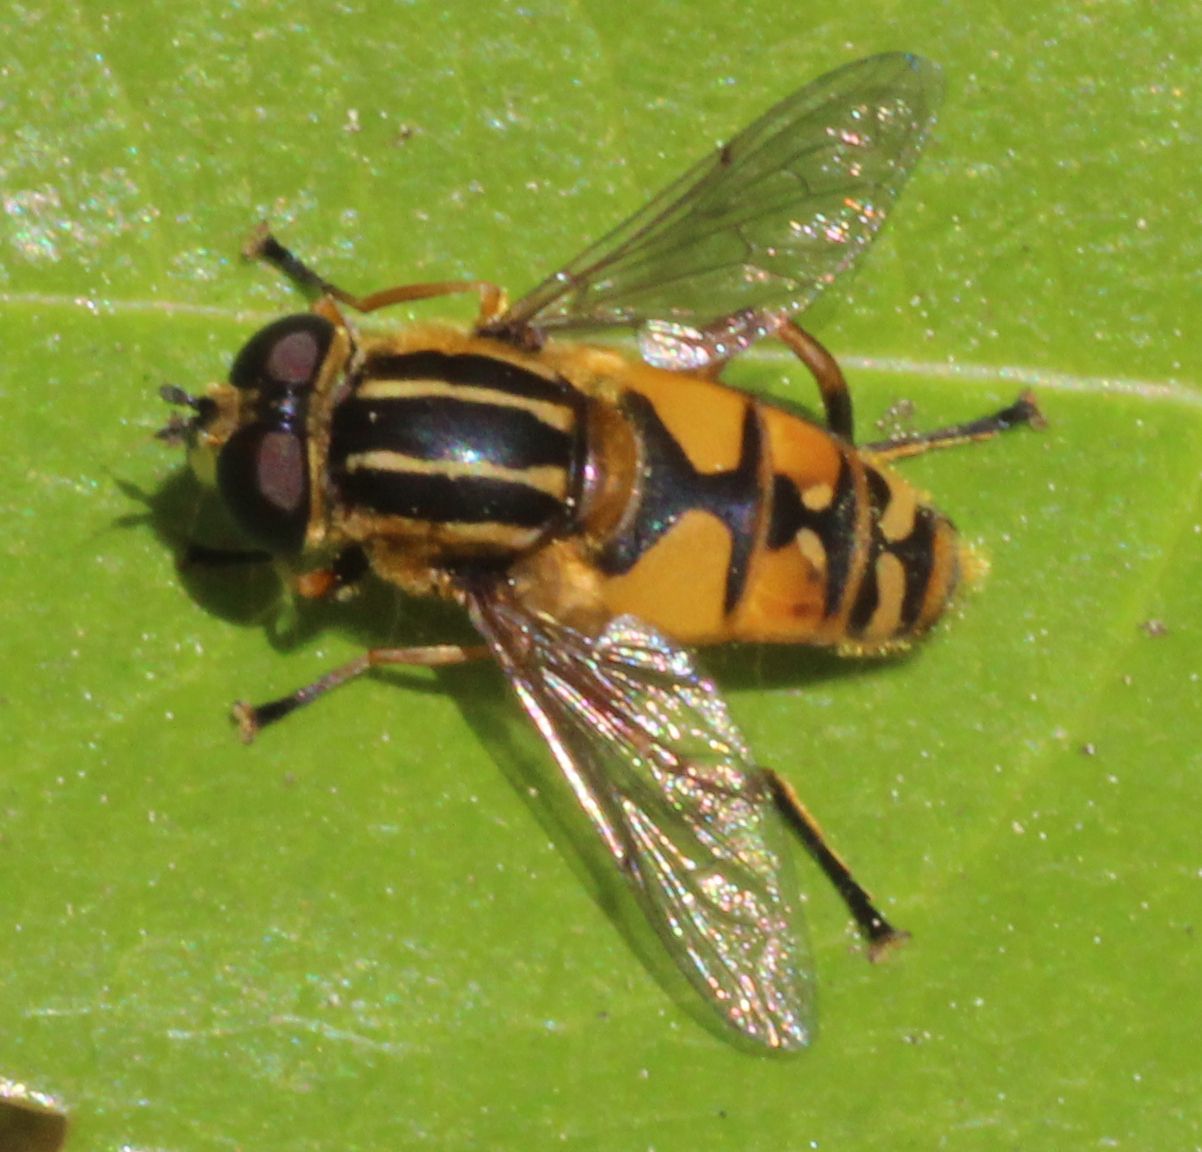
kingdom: Animalia
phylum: Arthropoda
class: Insecta
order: Diptera
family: Syrphidae
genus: Helophilus
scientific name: Helophilus pendulus
